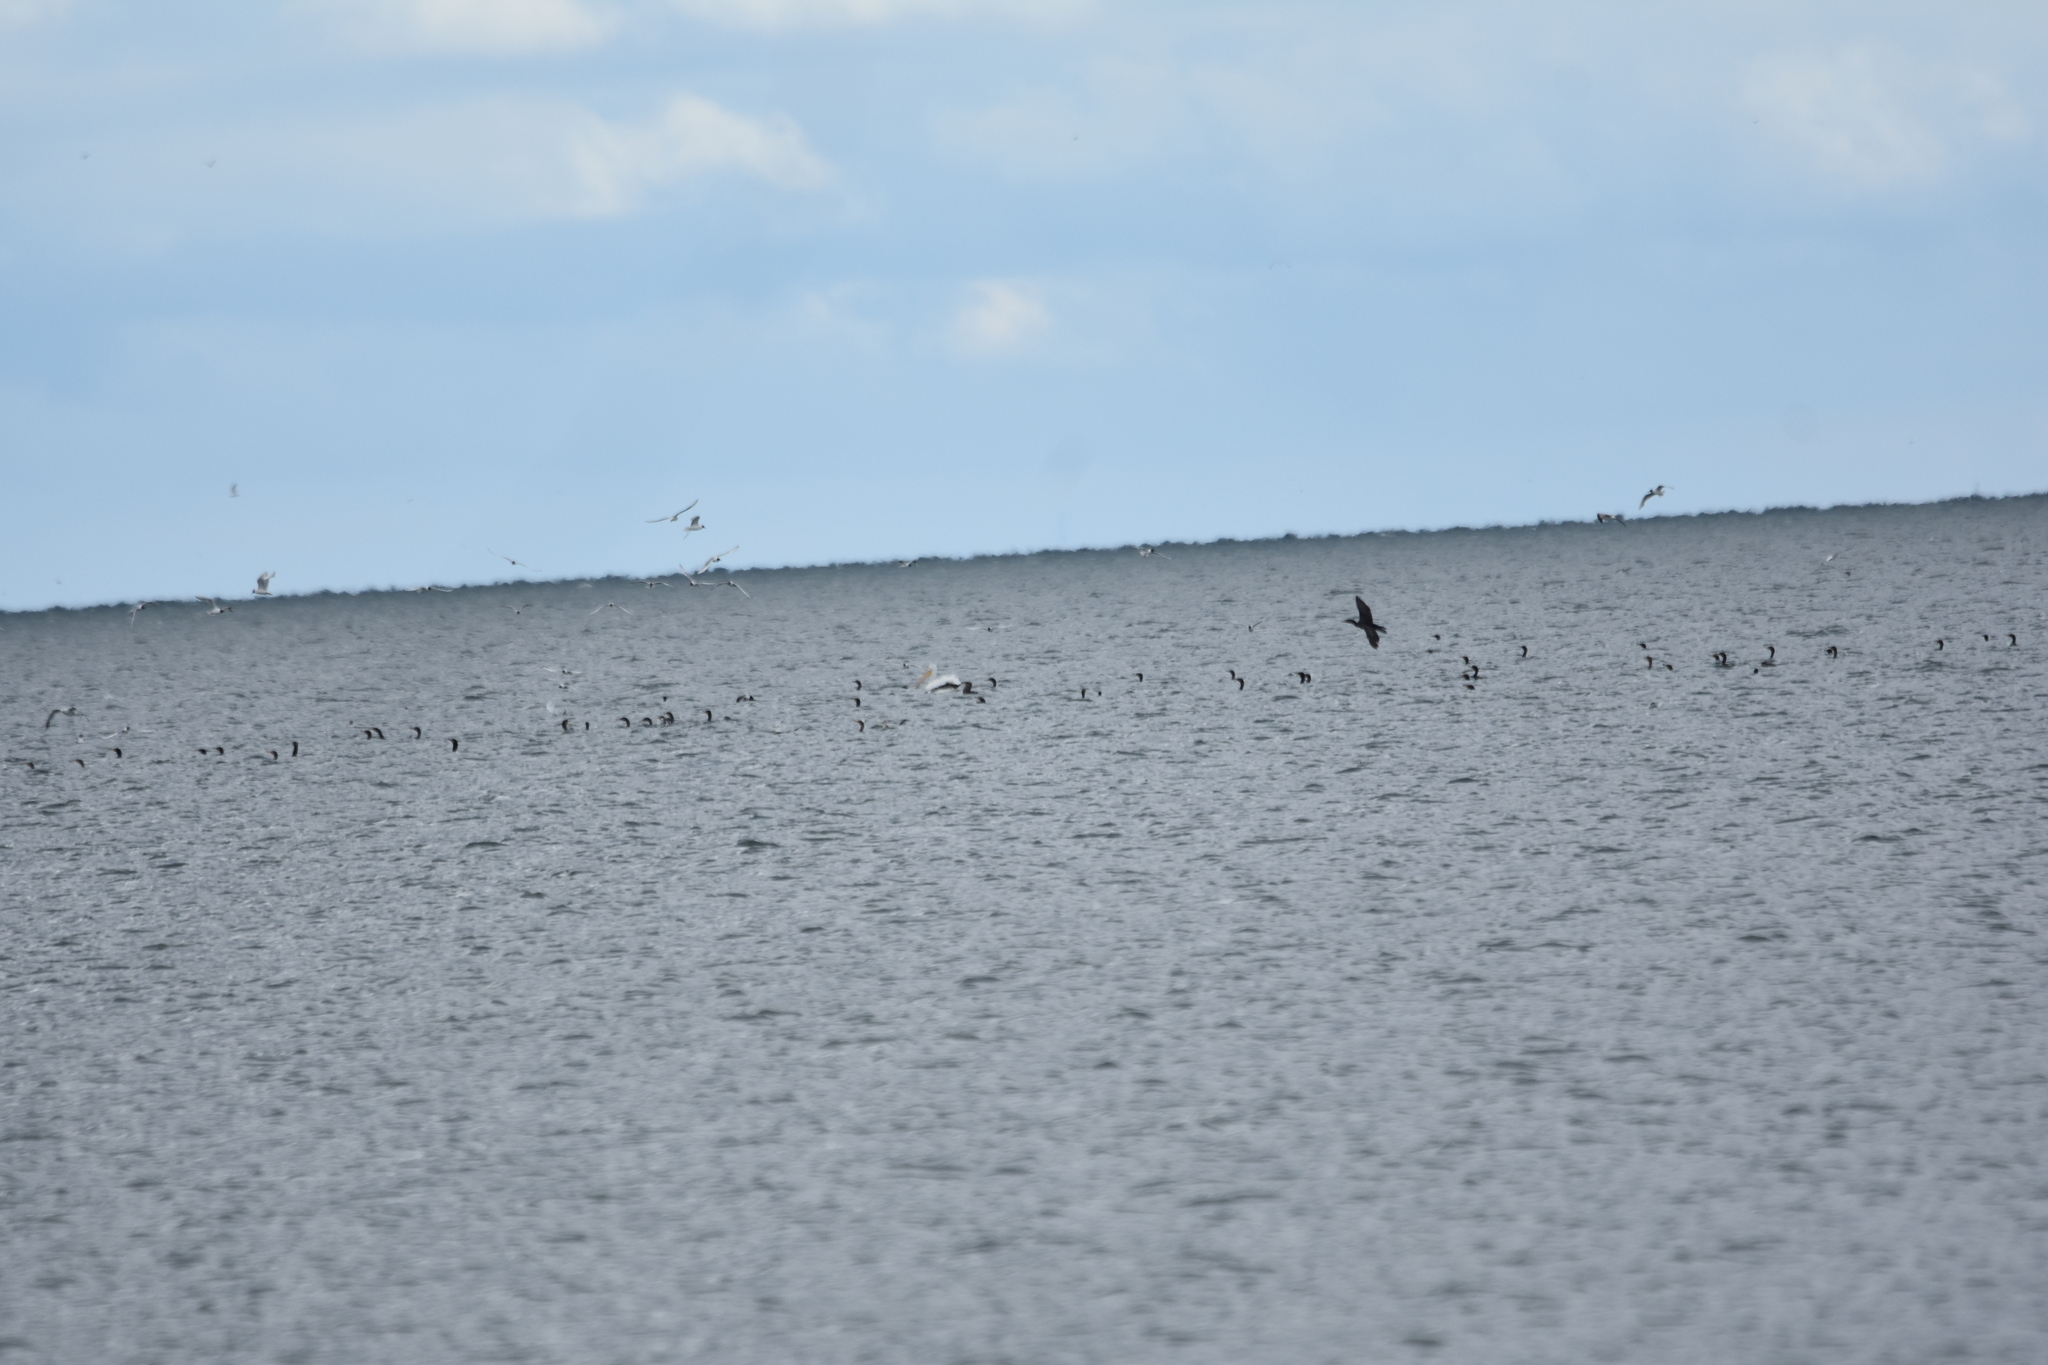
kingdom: Animalia
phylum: Chordata
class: Aves
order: Suliformes
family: Phalacrocoracidae
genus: Phalacrocorax
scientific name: Phalacrocorax auritus
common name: Double-crested cormorant
